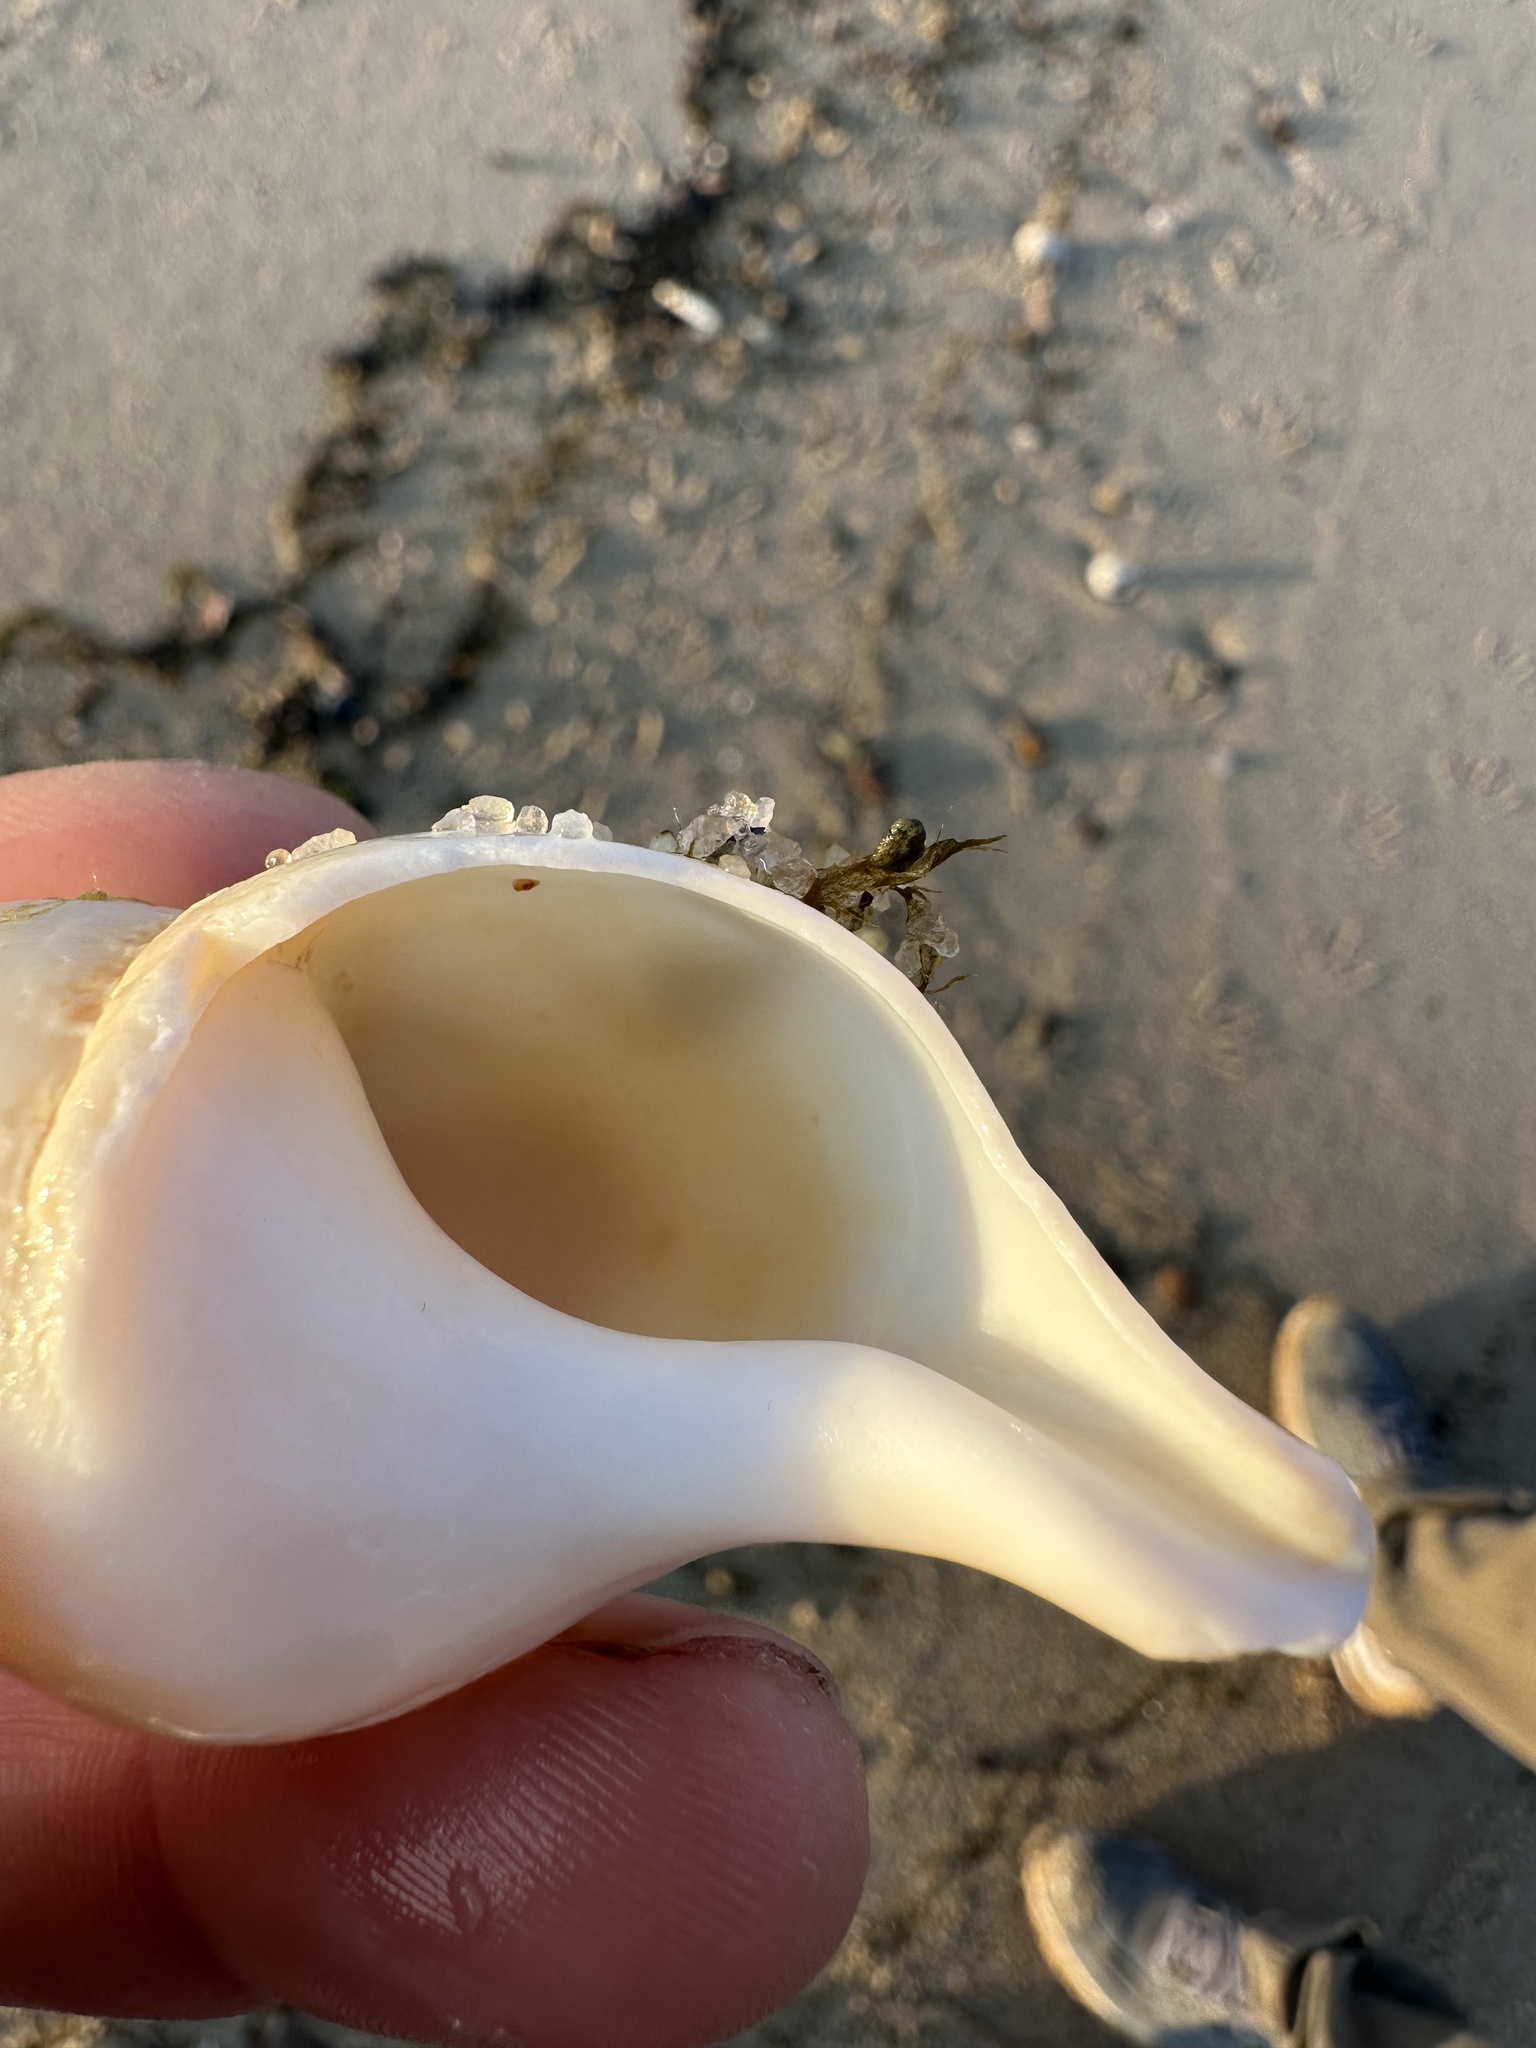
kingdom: Animalia
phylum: Mollusca
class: Gastropoda
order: Neogastropoda
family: Colidae
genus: Colus
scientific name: Colus stimpsoni
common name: Stimpson's colus
